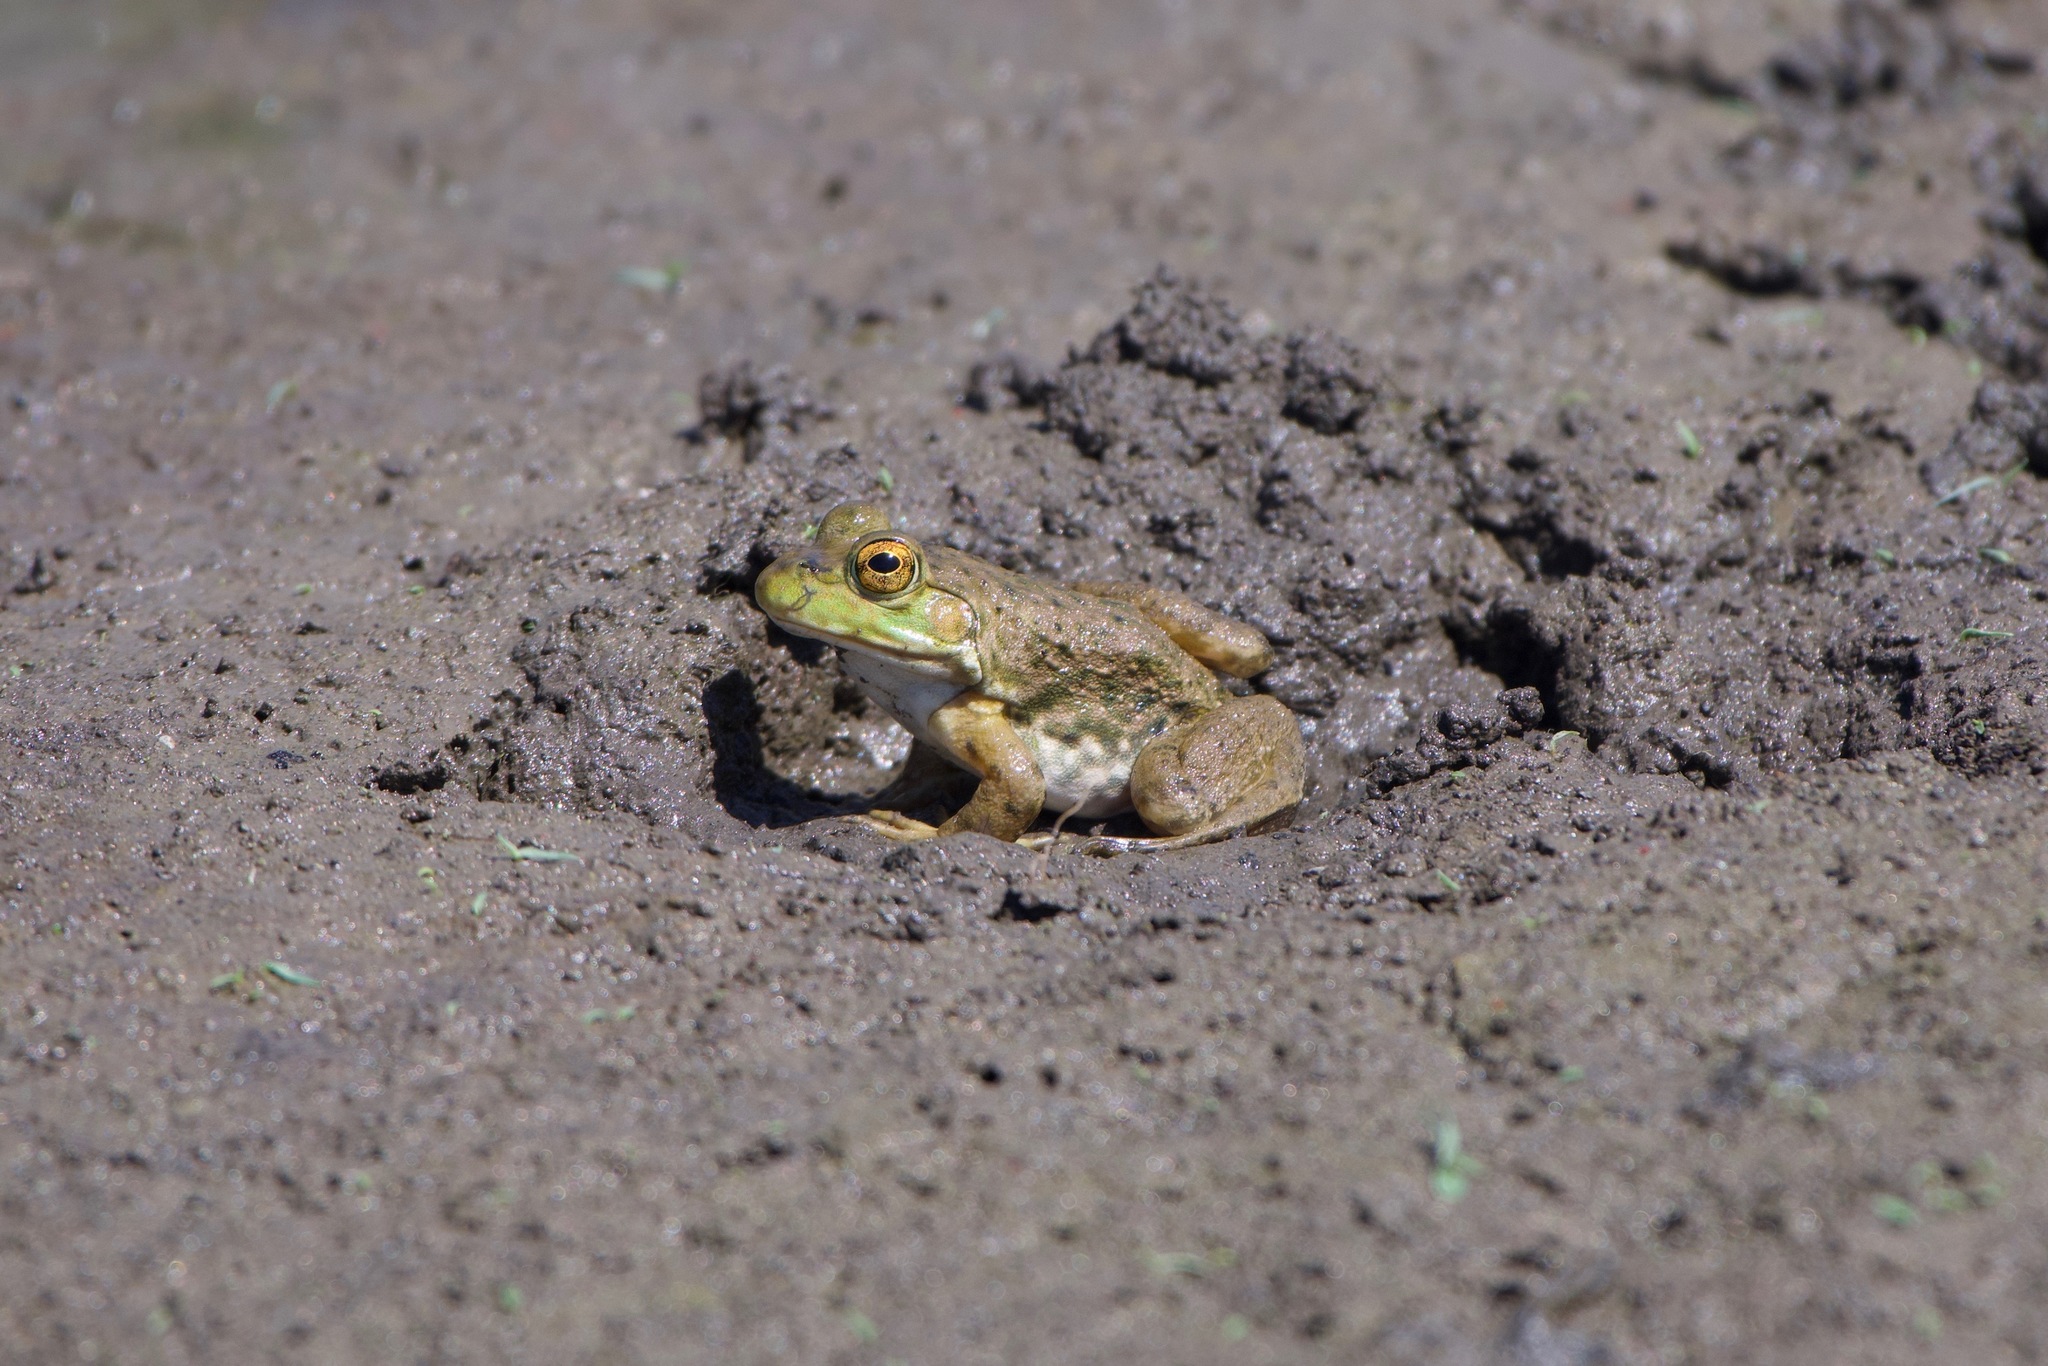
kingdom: Animalia
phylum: Chordata
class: Amphibia
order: Anura
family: Ranidae
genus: Lithobates
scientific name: Lithobates catesbeianus
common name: American bullfrog
